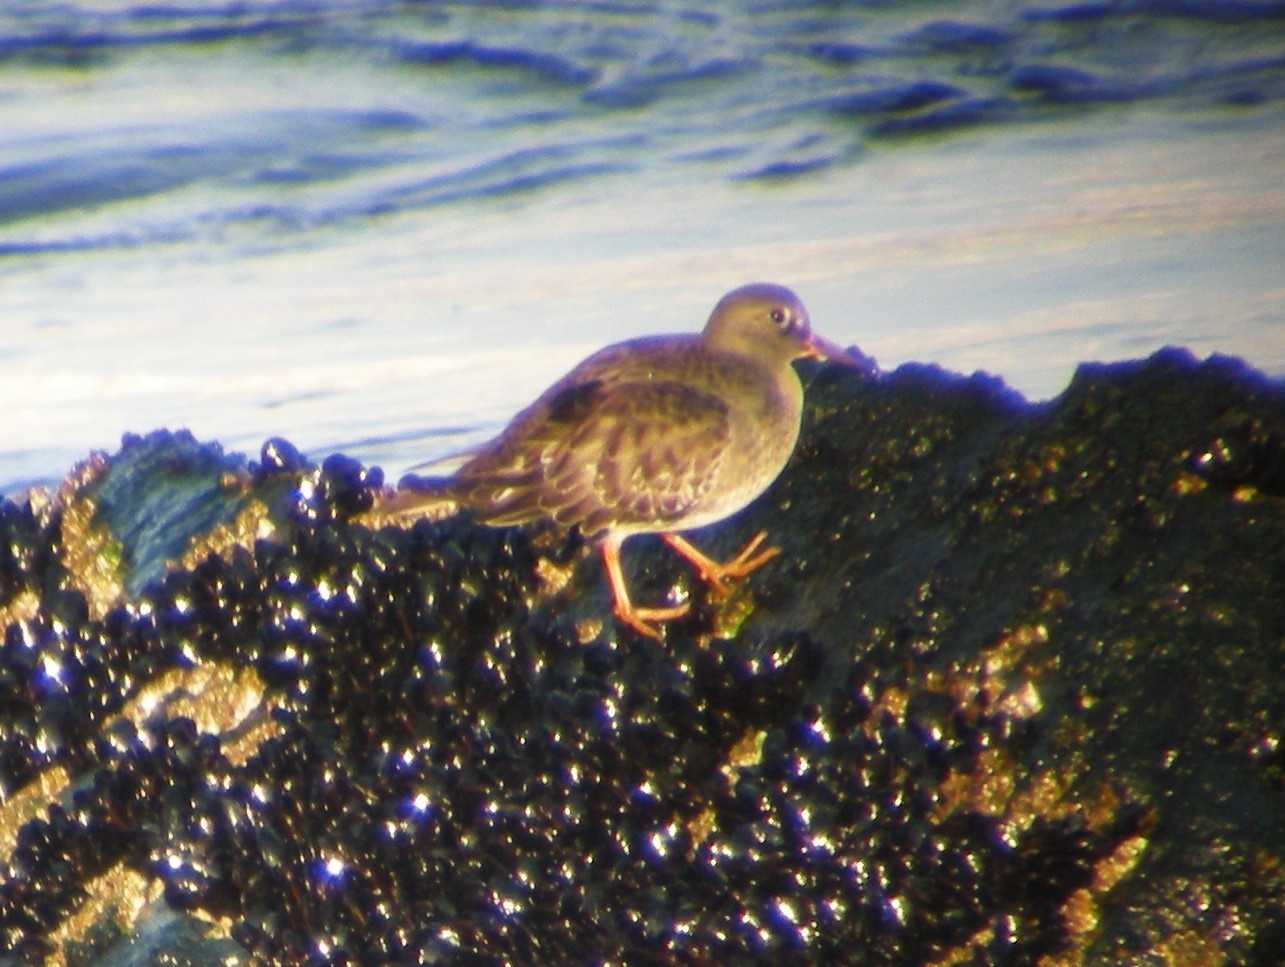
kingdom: Animalia
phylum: Chordata
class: Aves
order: Charadriiformes
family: Scolopacidae
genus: Calidris
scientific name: Calidris maritima
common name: Purple sandpiper
